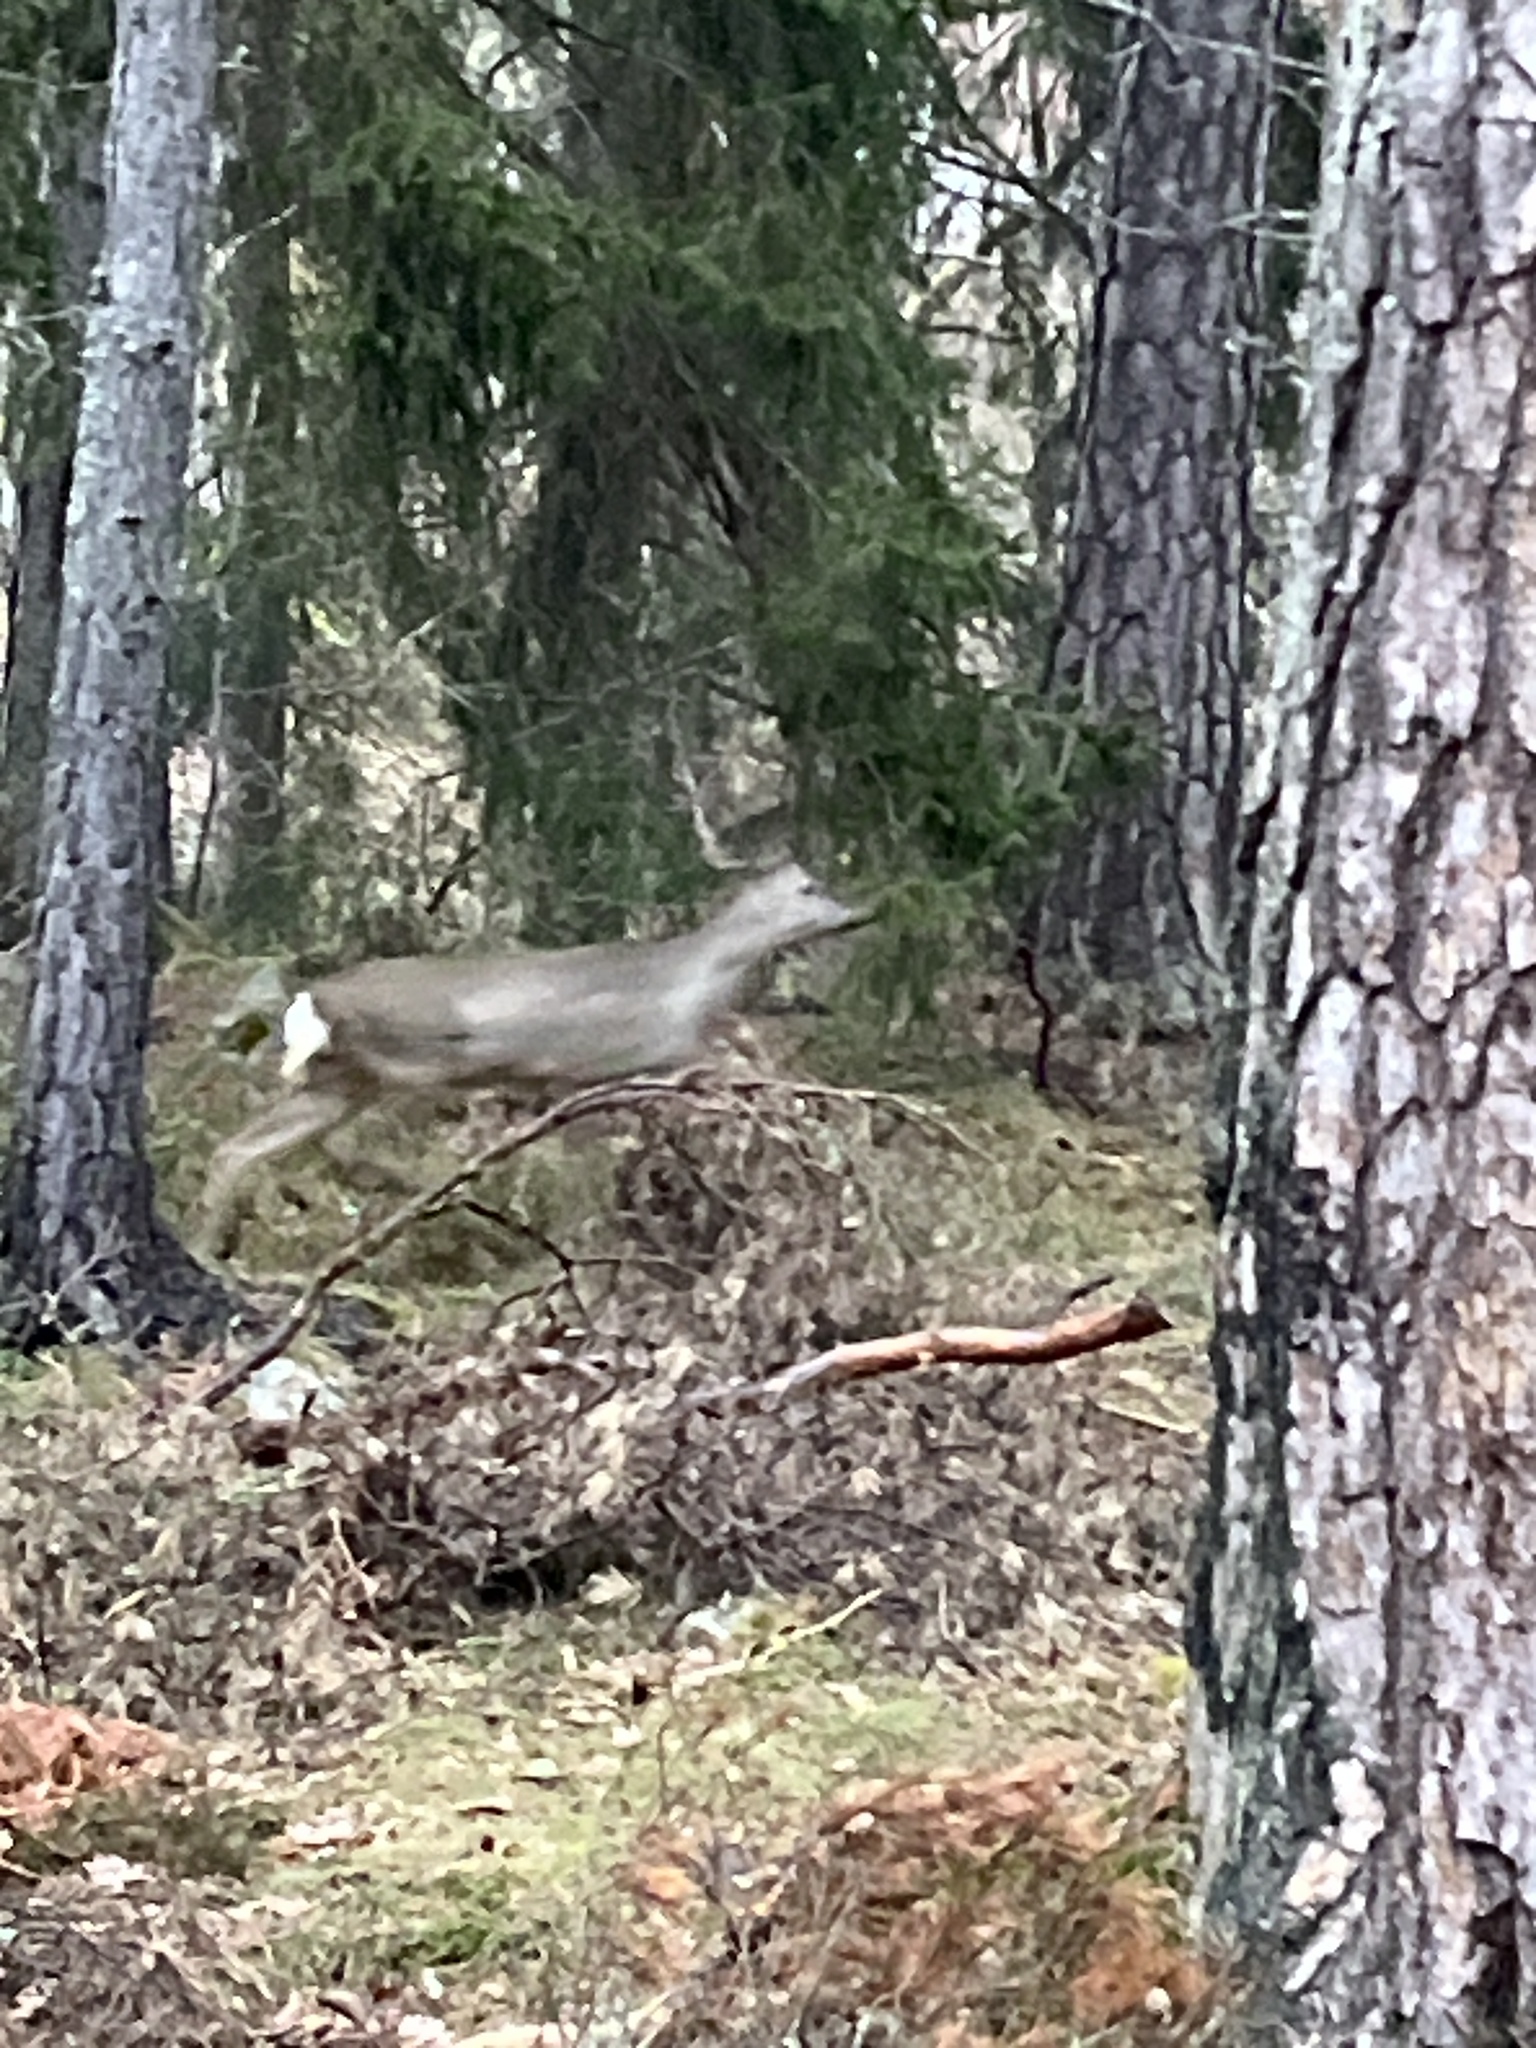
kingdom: Animalia
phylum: Chordata
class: Mammalia
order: Artiodactyla
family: Cervidae
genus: Capreolus
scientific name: Capreolus capreolus
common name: Western roe deer
